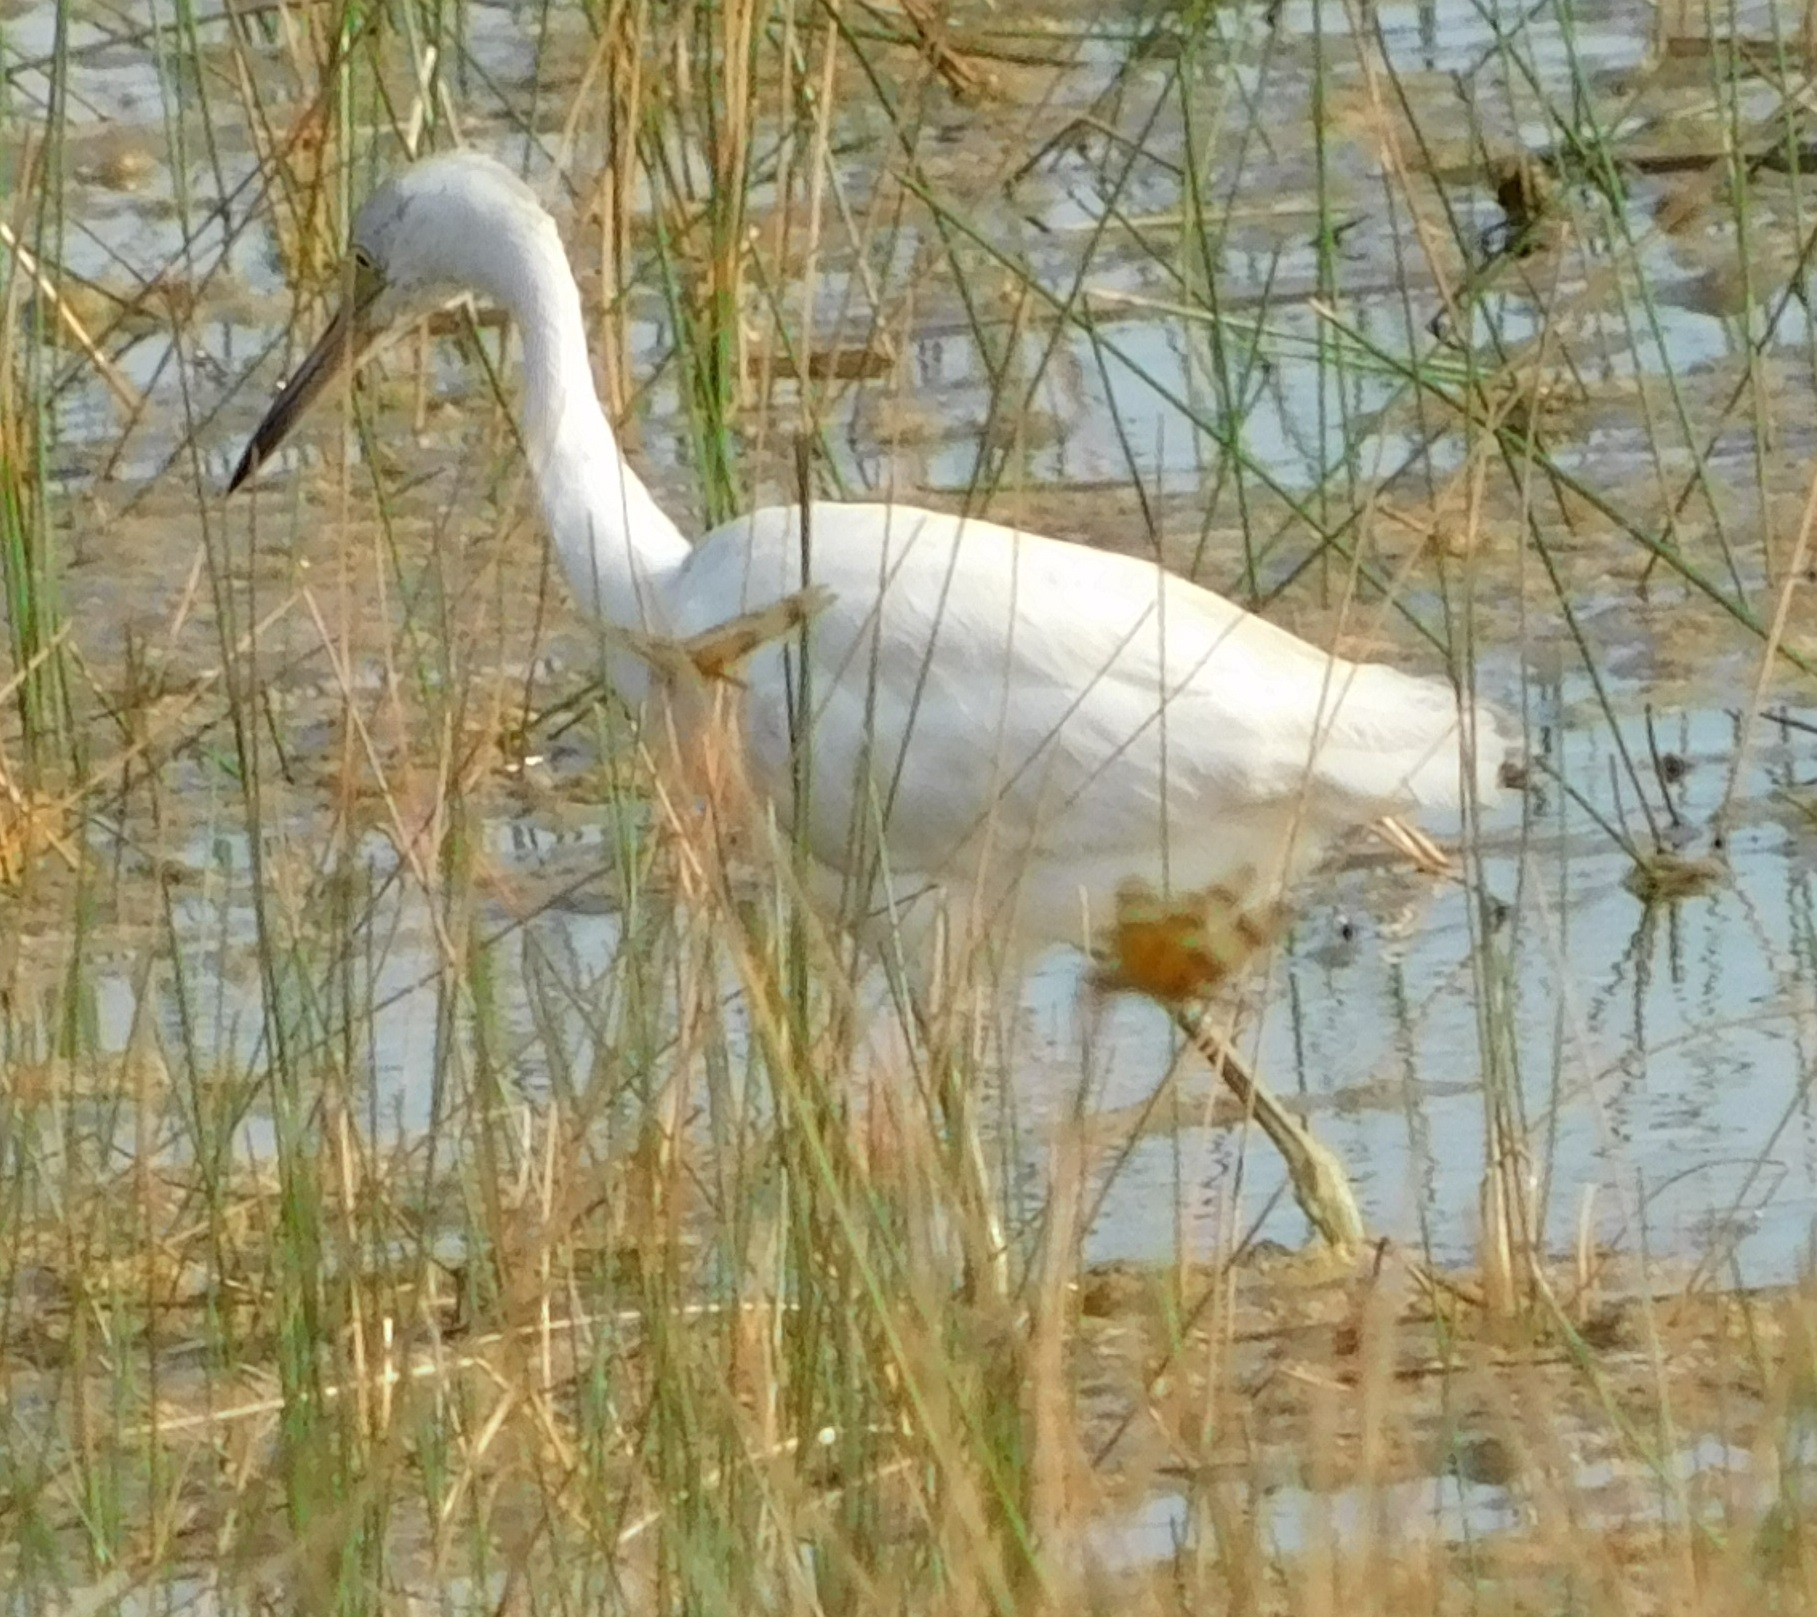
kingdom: Animalia
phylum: Chordata
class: Aves
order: Pelecaniformes
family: Ardeidae
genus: Egretta
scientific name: Egretta caerulea
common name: Little blue heron
